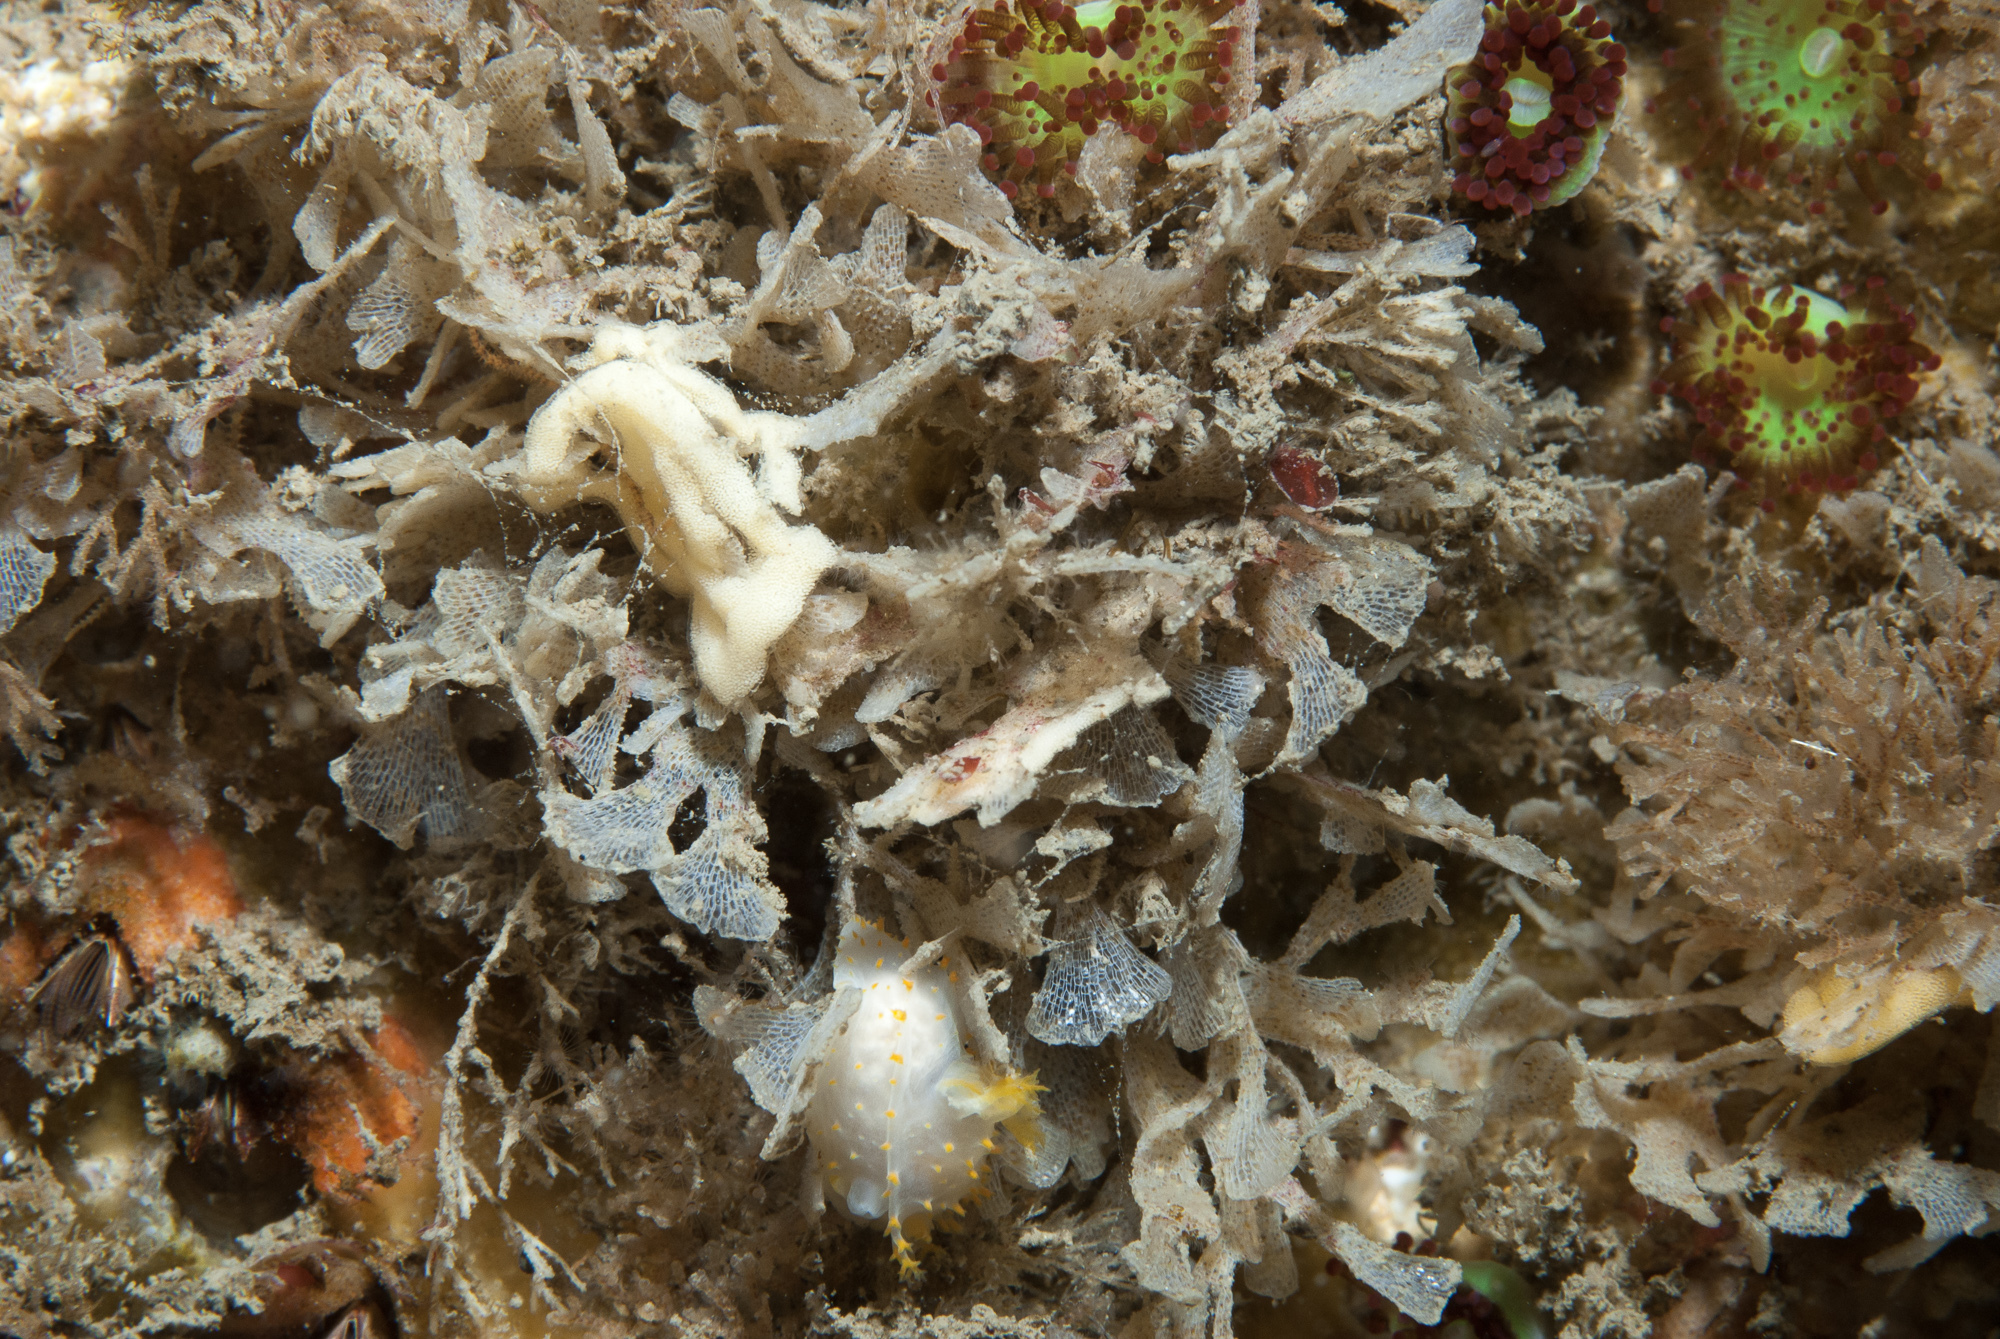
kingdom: Animalia
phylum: Mollusca
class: Gastropoda
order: Nudibranchia
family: Polyceridae
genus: Crimora
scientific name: Crimora papillata
